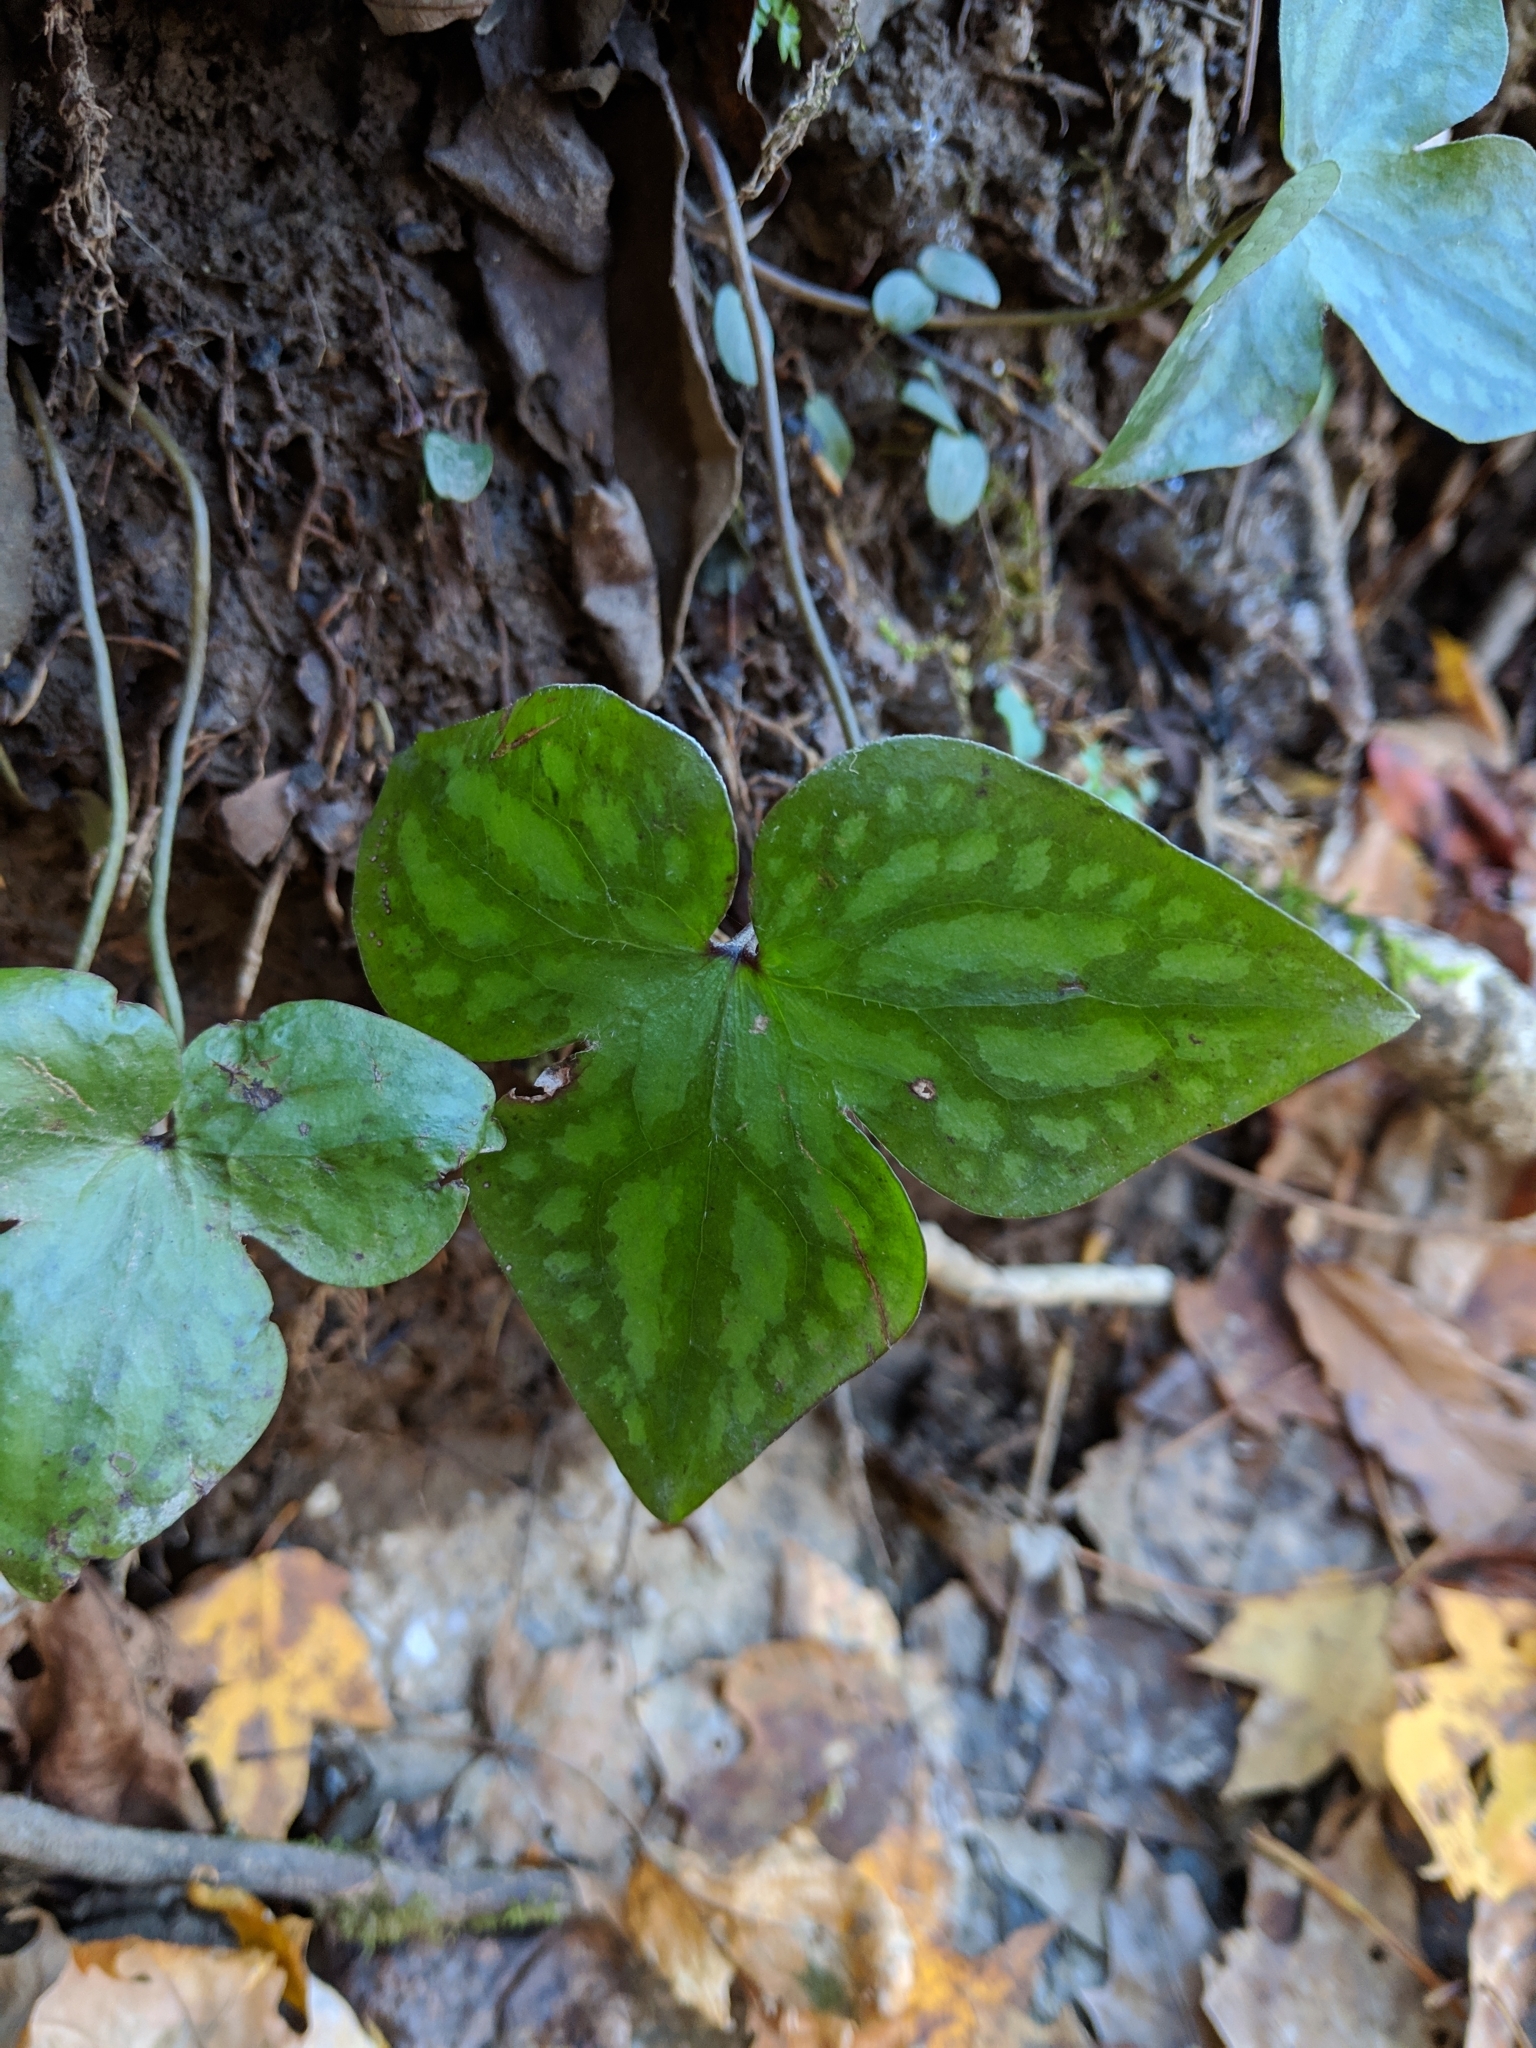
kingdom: Plantae
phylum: Tracheophyta
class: Magnoliopsida
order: Ranunculales
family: Ranunculaceae
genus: Hepatica
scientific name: Hepatica acutiloba
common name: Sharp-lobed hepatica
